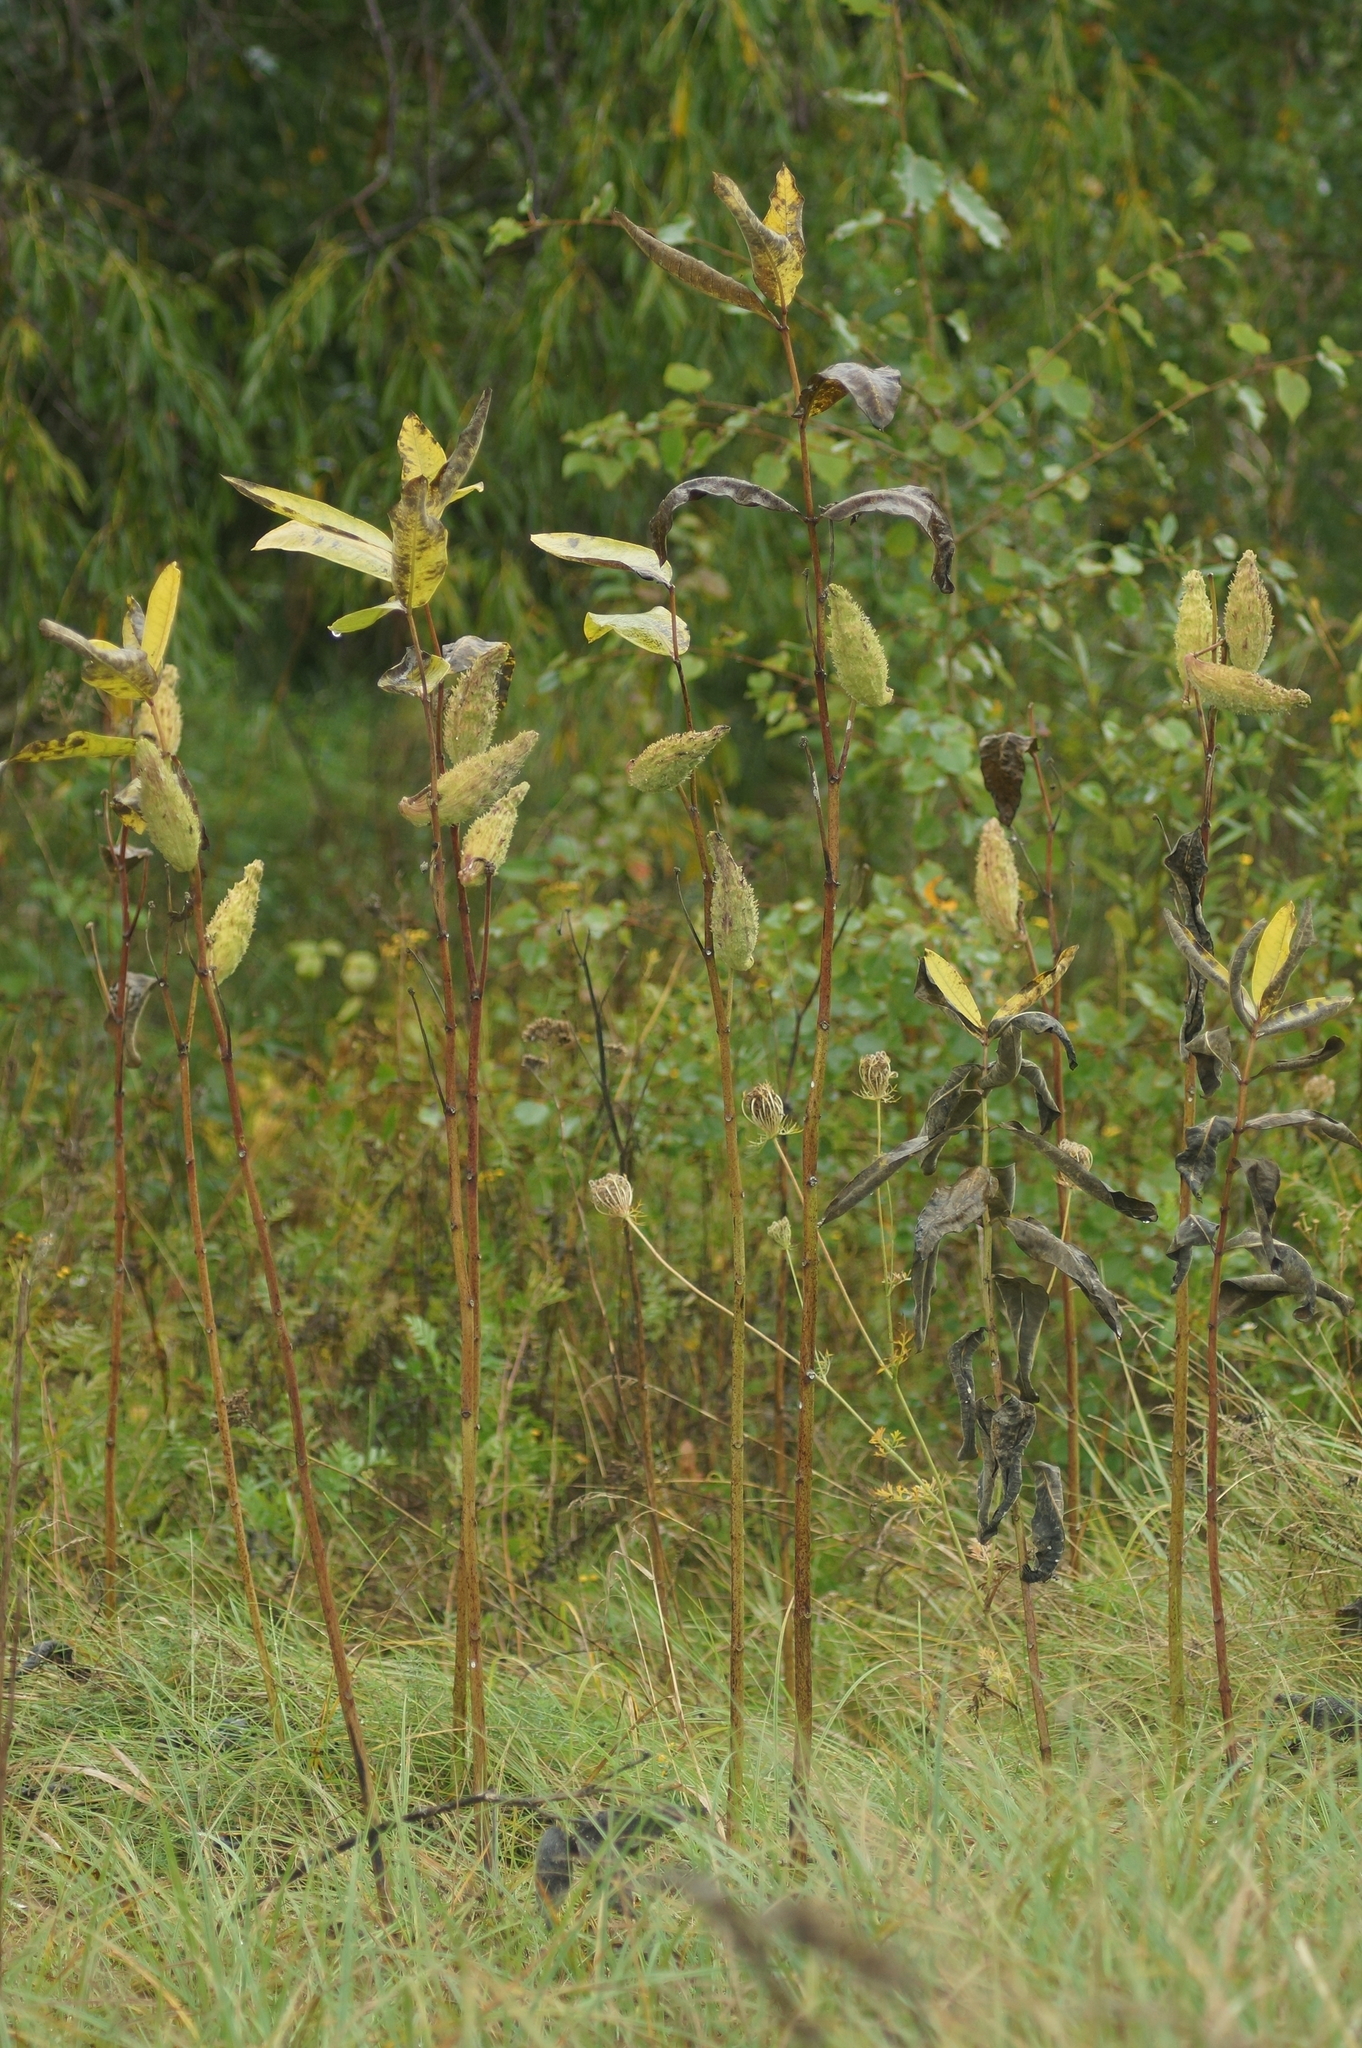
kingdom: Plantae
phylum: Tracheophyta
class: Magnoliopsida
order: Gentianales
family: Apocynaceae
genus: Asclepias
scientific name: Asclepias syriaca
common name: Common milkweed
